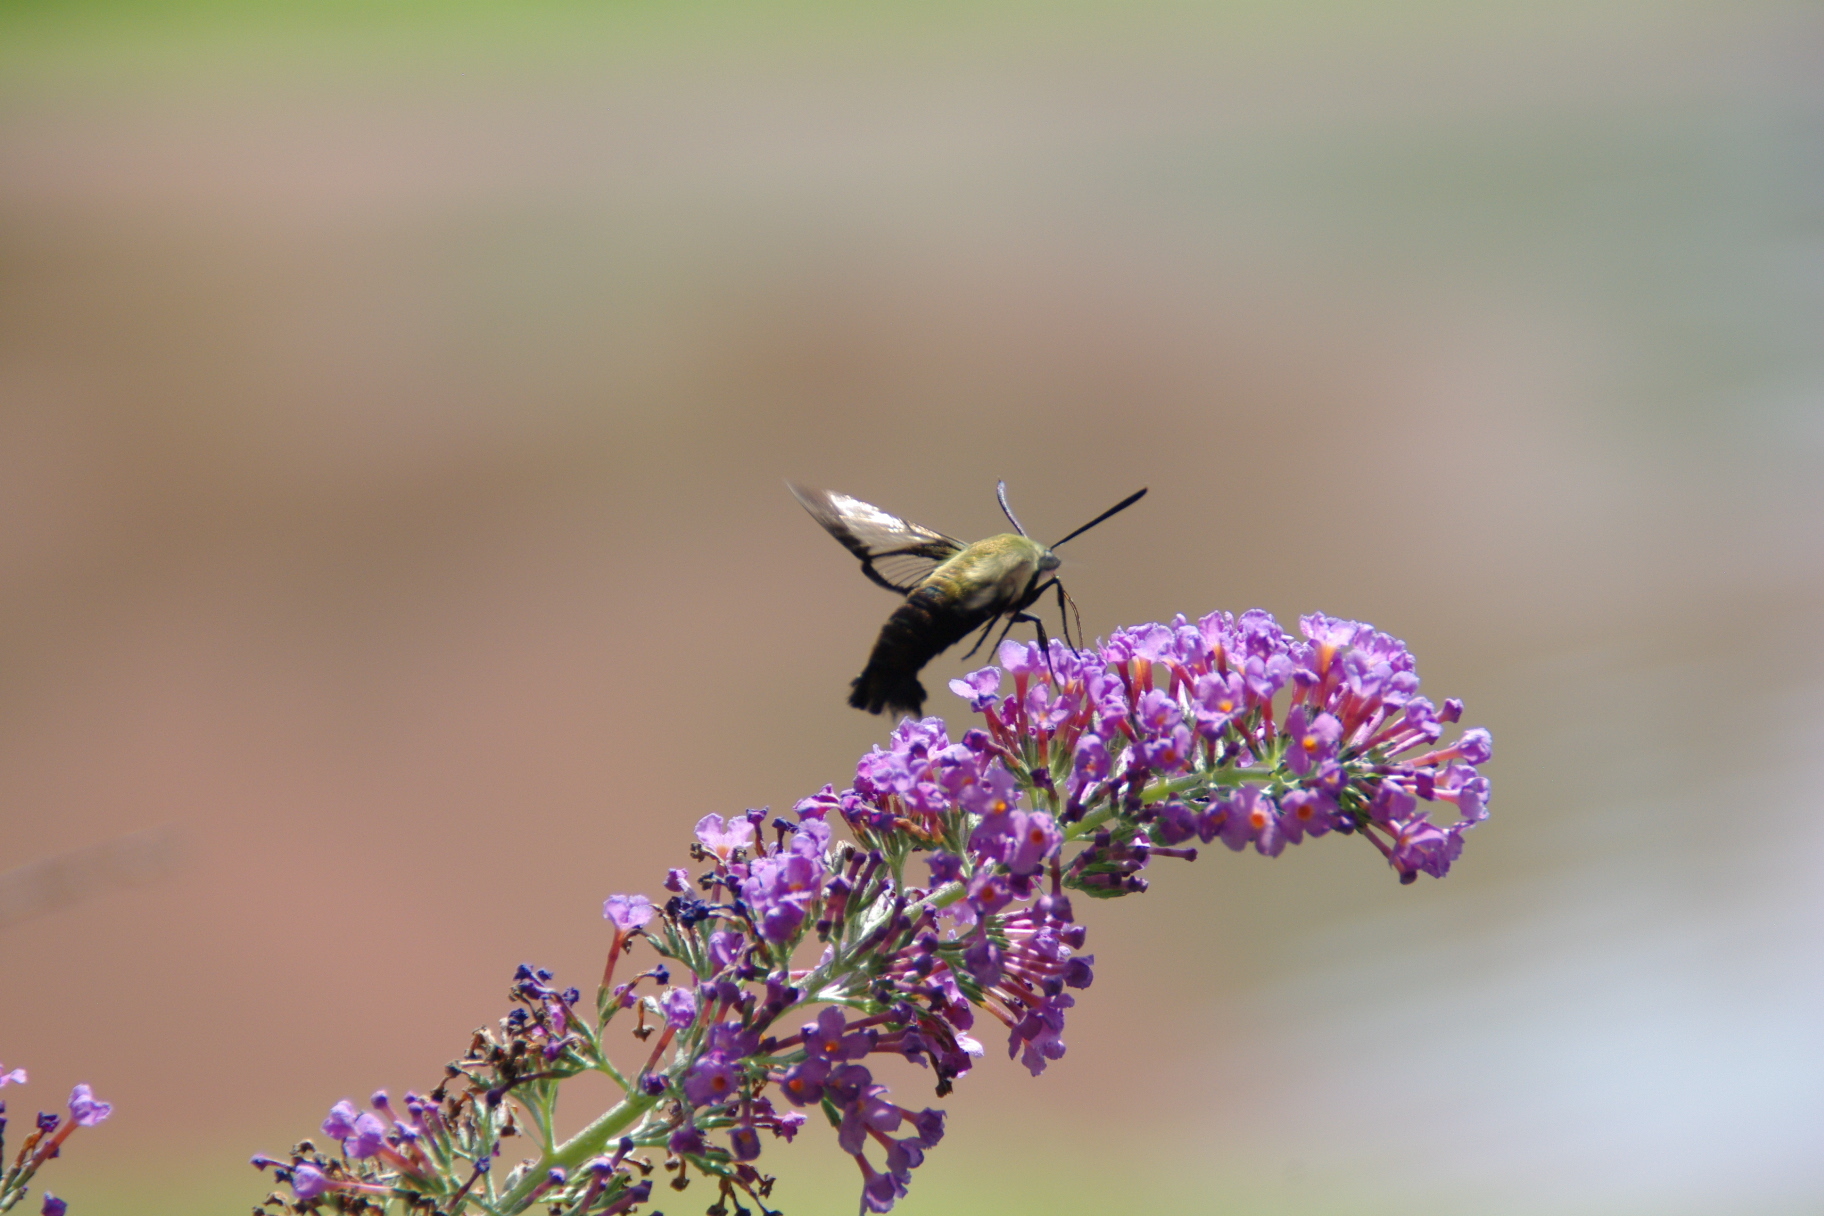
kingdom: Animalia
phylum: Arthropoda
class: Insecta
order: Lepidoptera
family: Sphingidae
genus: Hemaris
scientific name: Hemaris diffinis
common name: Bumblebee moth
